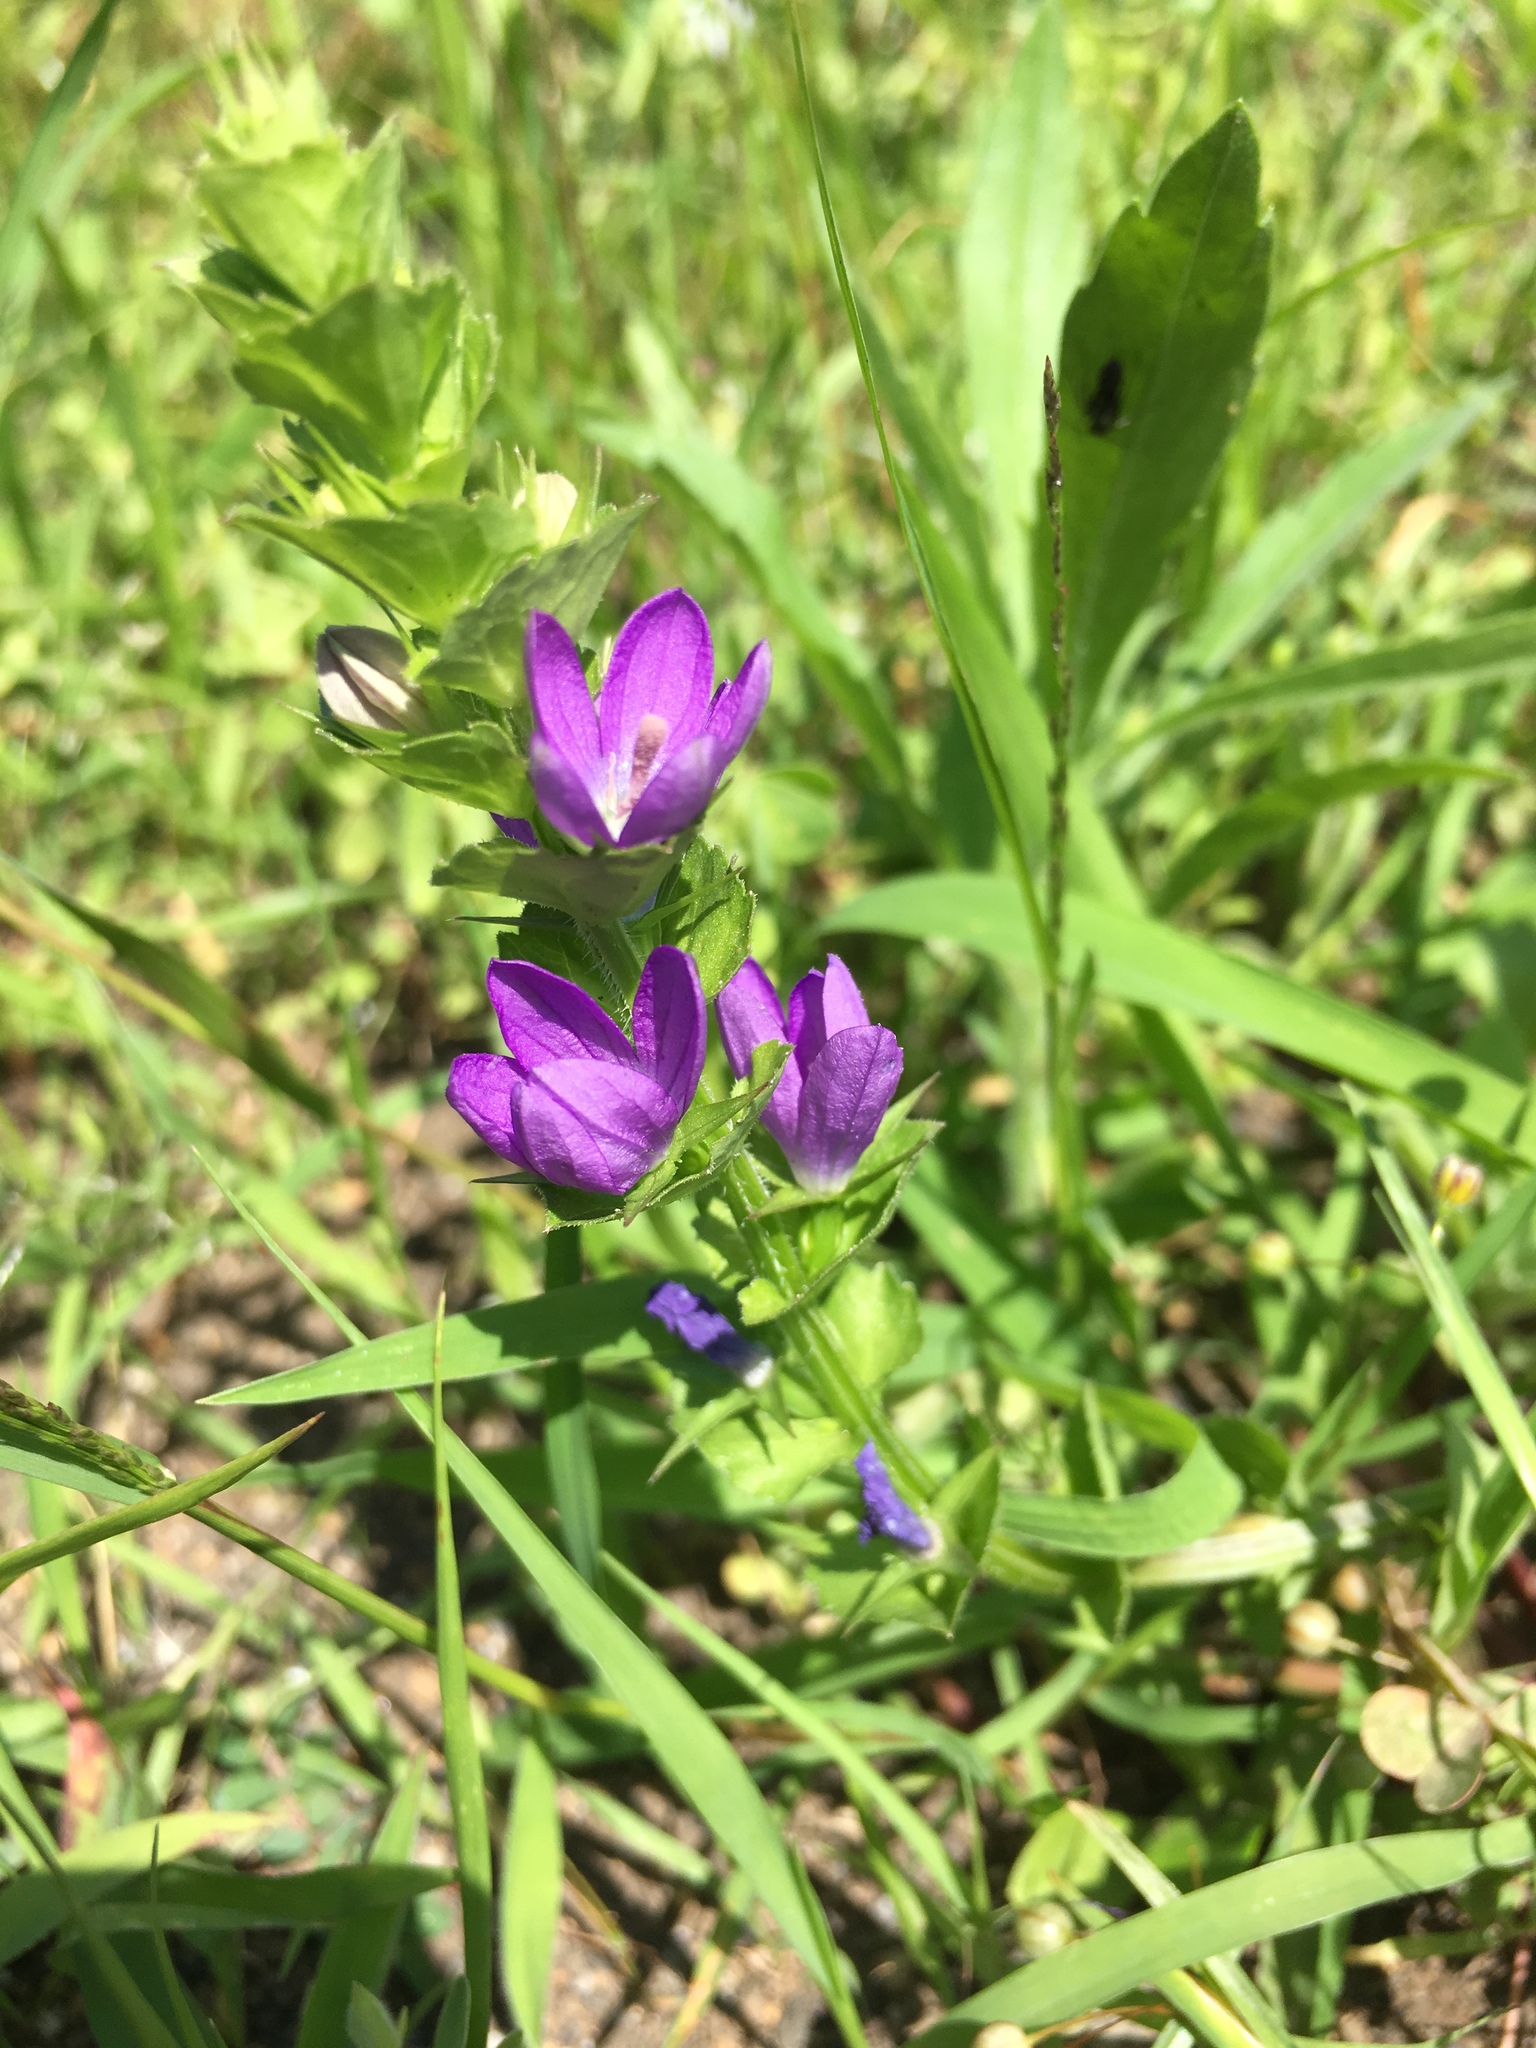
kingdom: Plantae
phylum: Tracheophyta
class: Magnoliopsida
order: Asterales
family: Campanulaceae
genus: Triodanis
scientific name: Triodanis perfoliata
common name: Clasping venus' looking-glass
